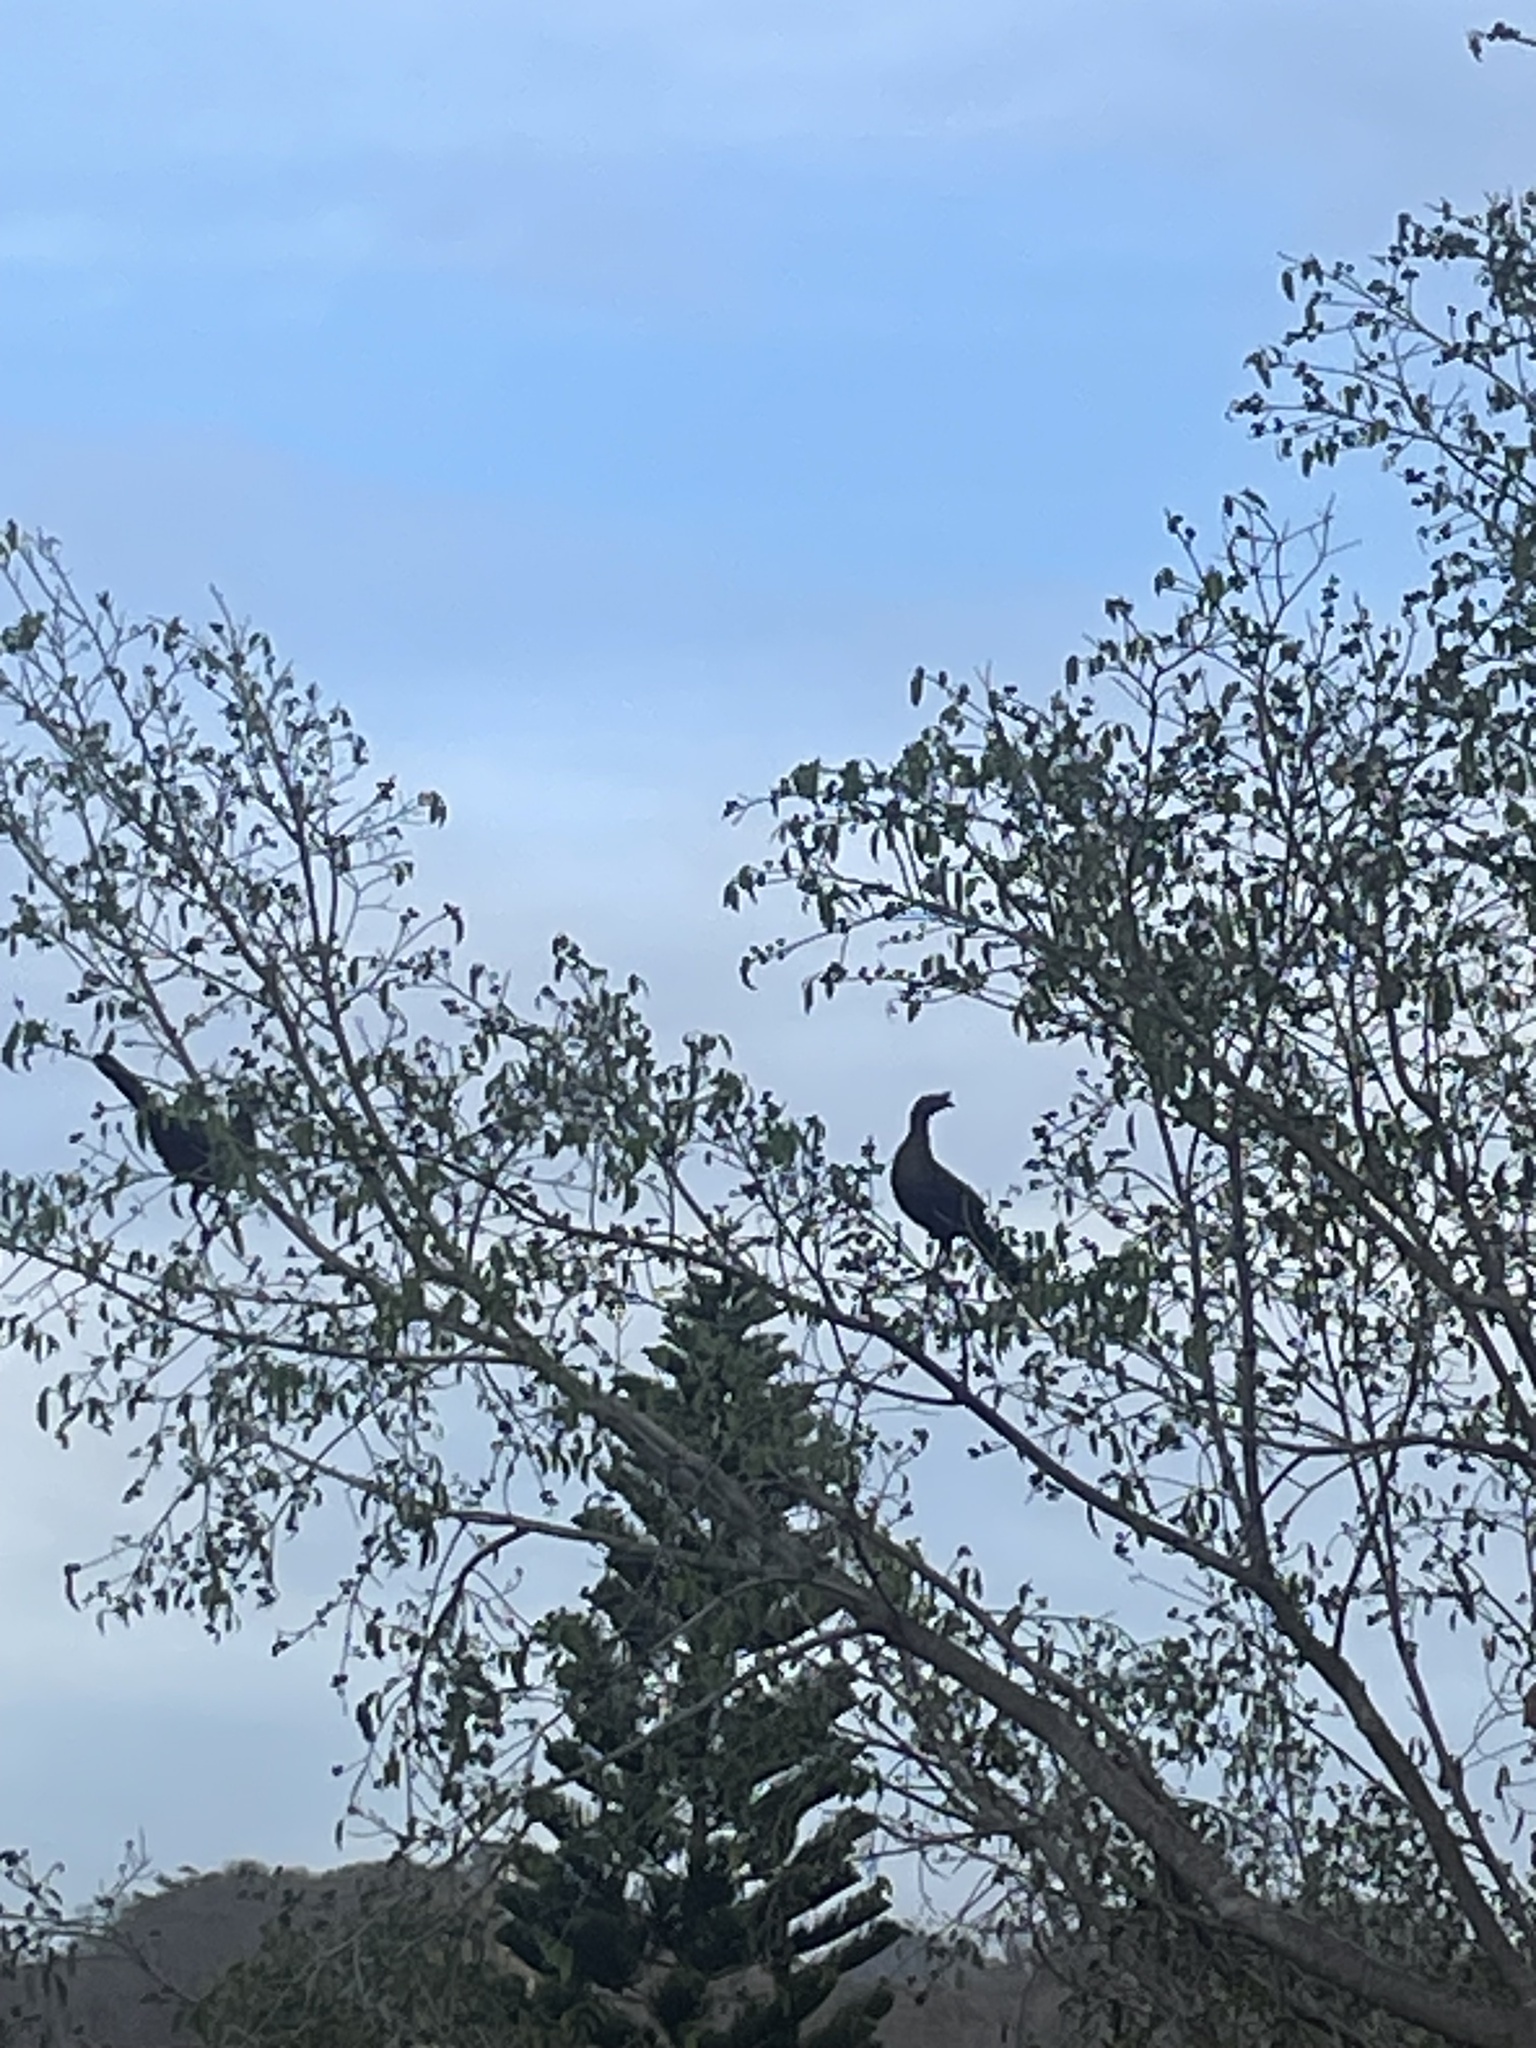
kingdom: Animalia
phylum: Chordata
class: Aves
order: Galliformes
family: Cracidae
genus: Ortalis
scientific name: Ortalis wagleri
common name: Rufous-bellied chachalaca
